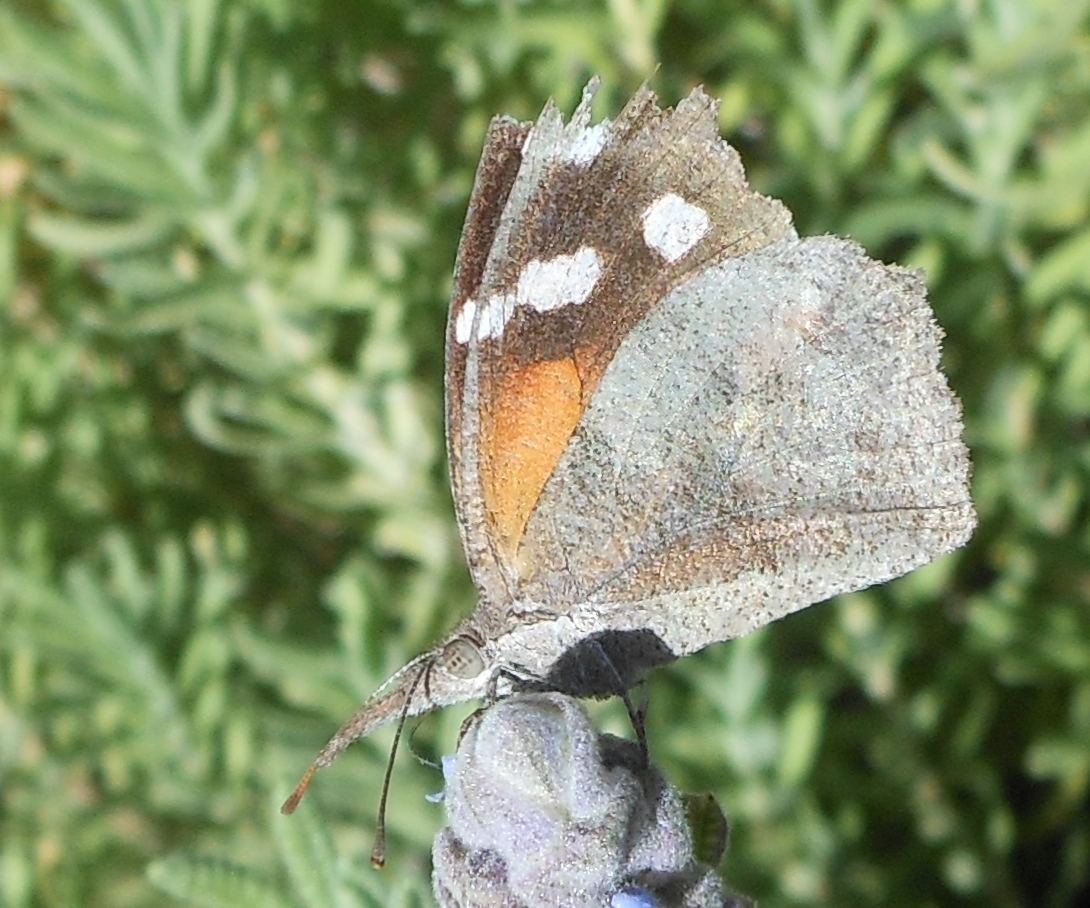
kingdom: Animalia
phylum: Arthropoda
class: Insecta
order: Lepidoptera
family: Nymphalidae
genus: Libytheana
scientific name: Libytheana carinenta
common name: American snout
